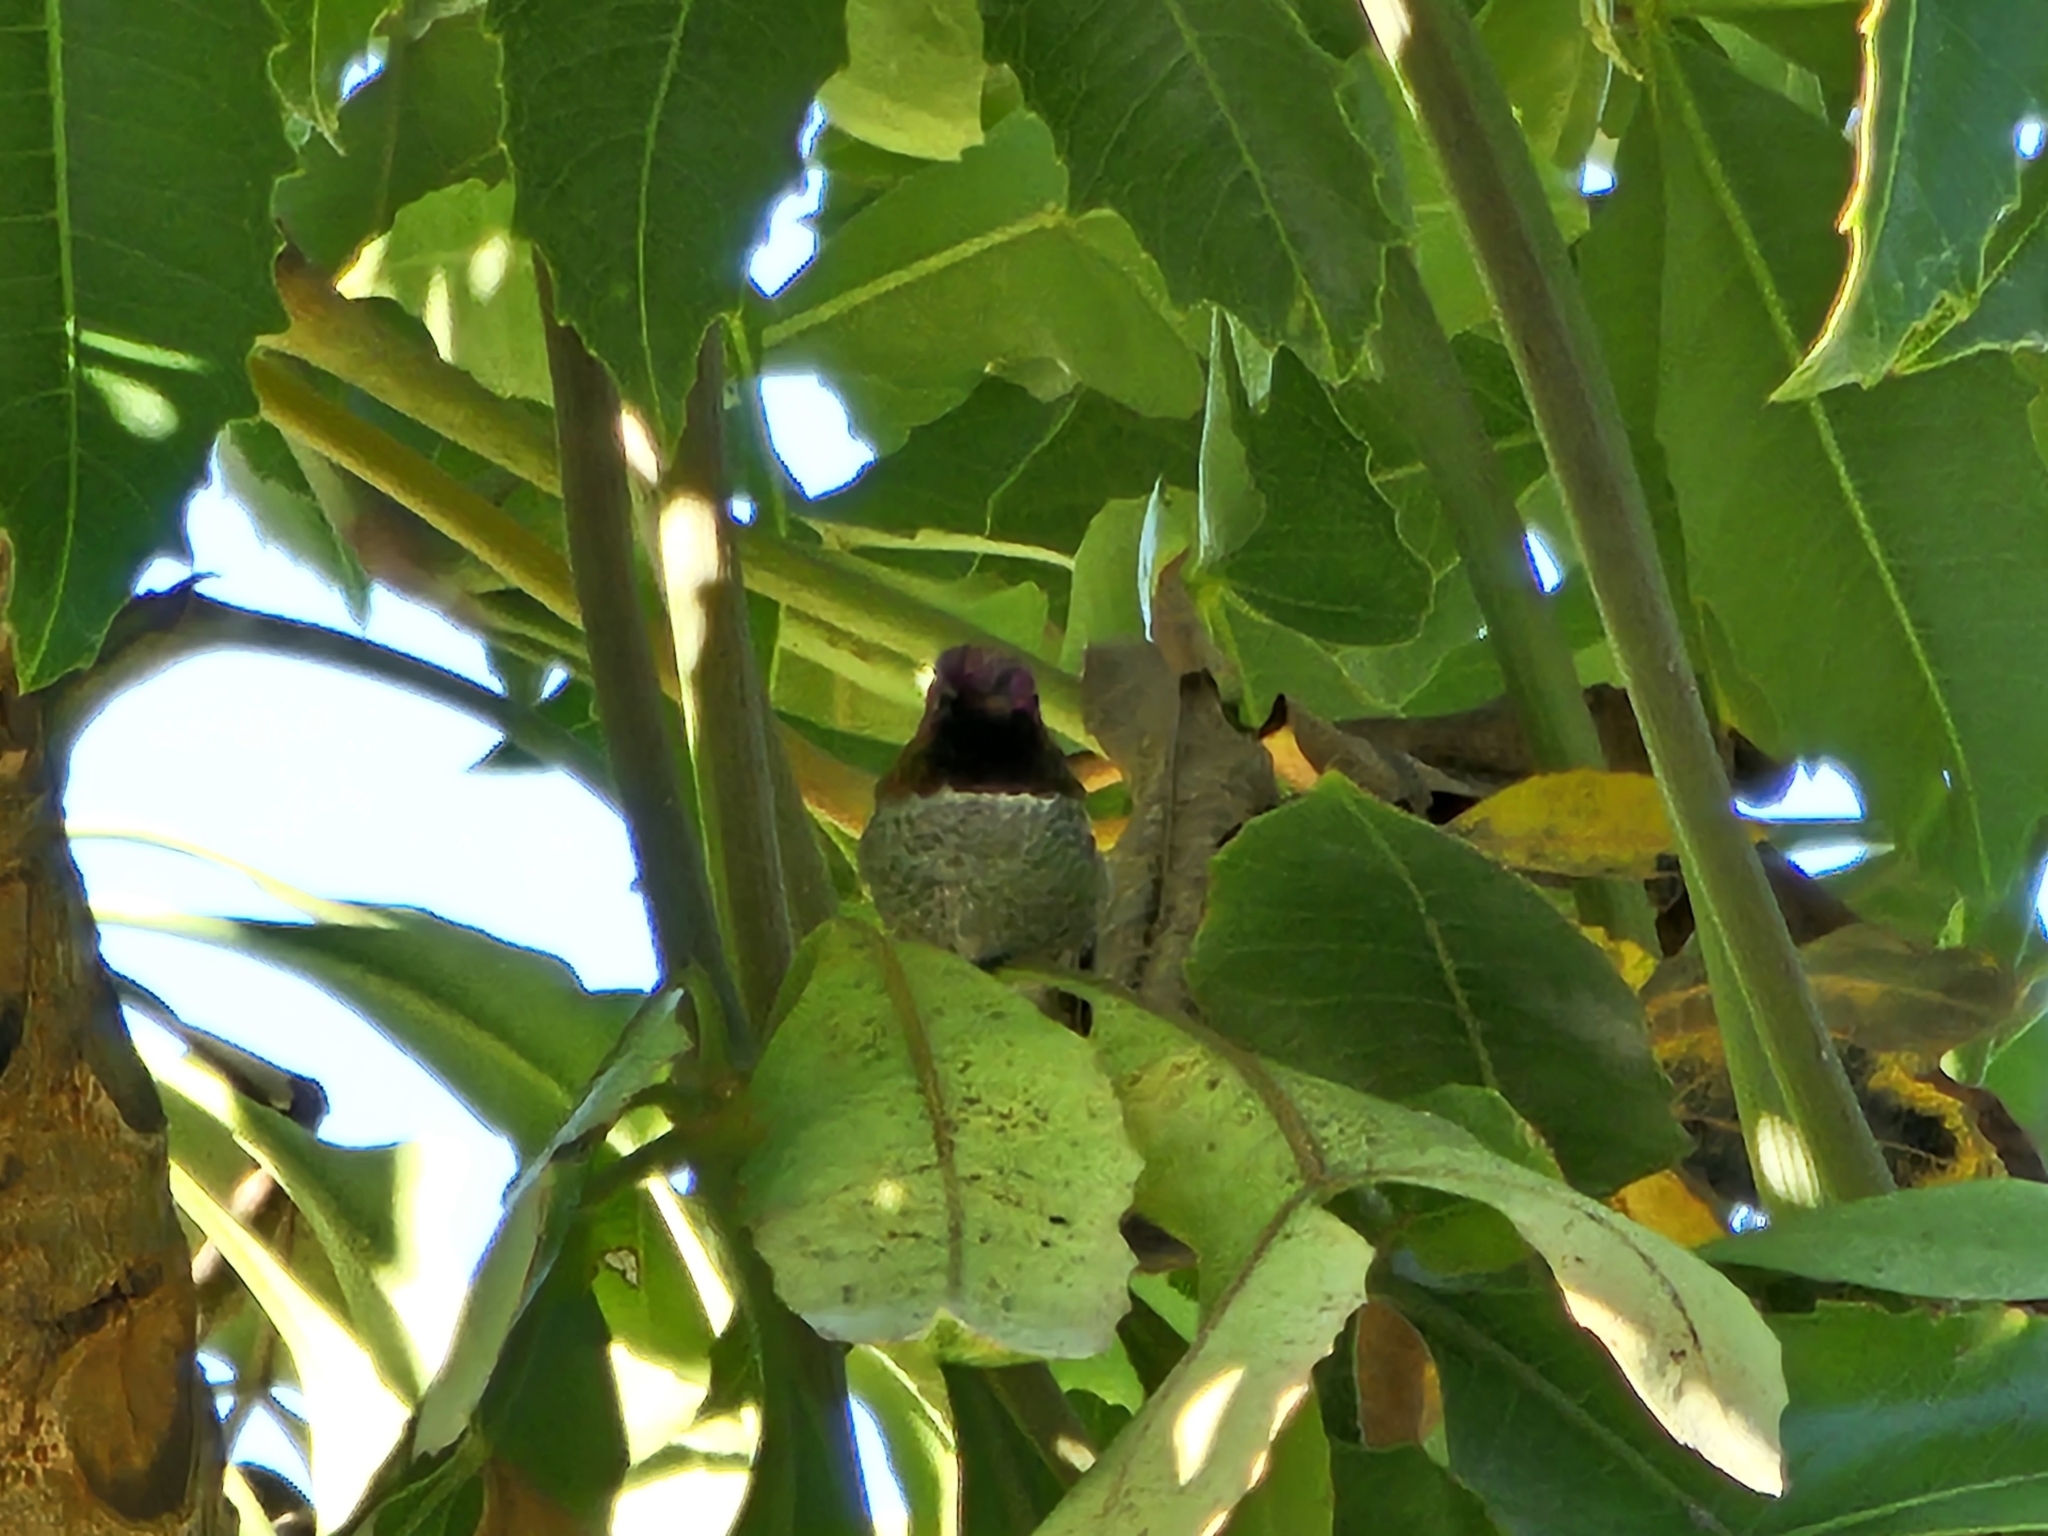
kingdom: Animalia
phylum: Chordata
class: Aves
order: Apodiformes
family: Trochilidae
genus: Calypte
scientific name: Calypte anna
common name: Anna's hummingbird
